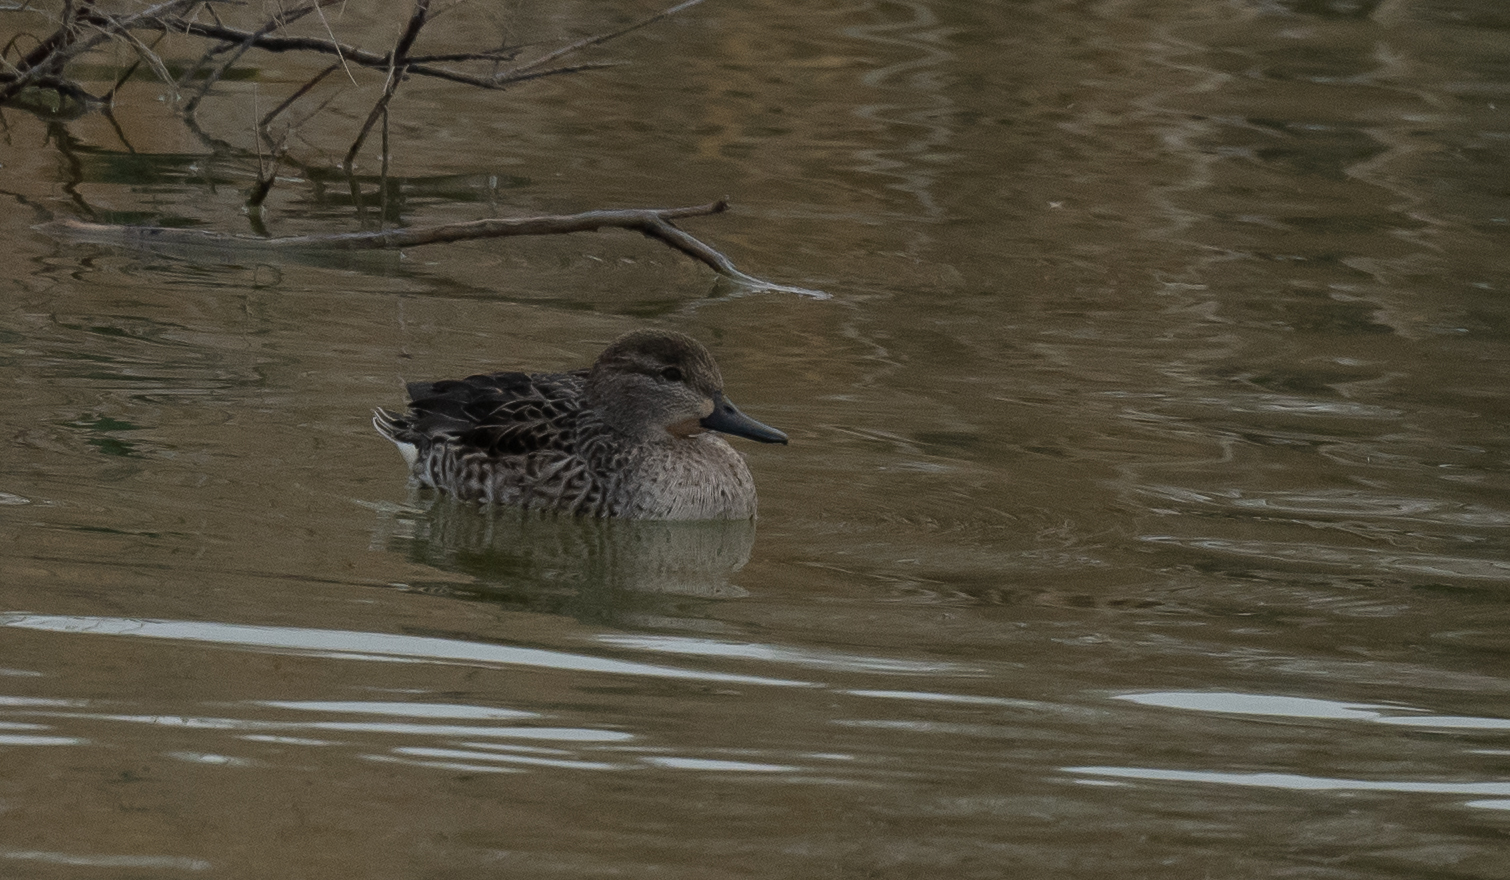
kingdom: Animalia
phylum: Chordata
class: Aves
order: Anseriformes
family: Anatidae
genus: Anas
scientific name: Anas crecca
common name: Eurasian teal
